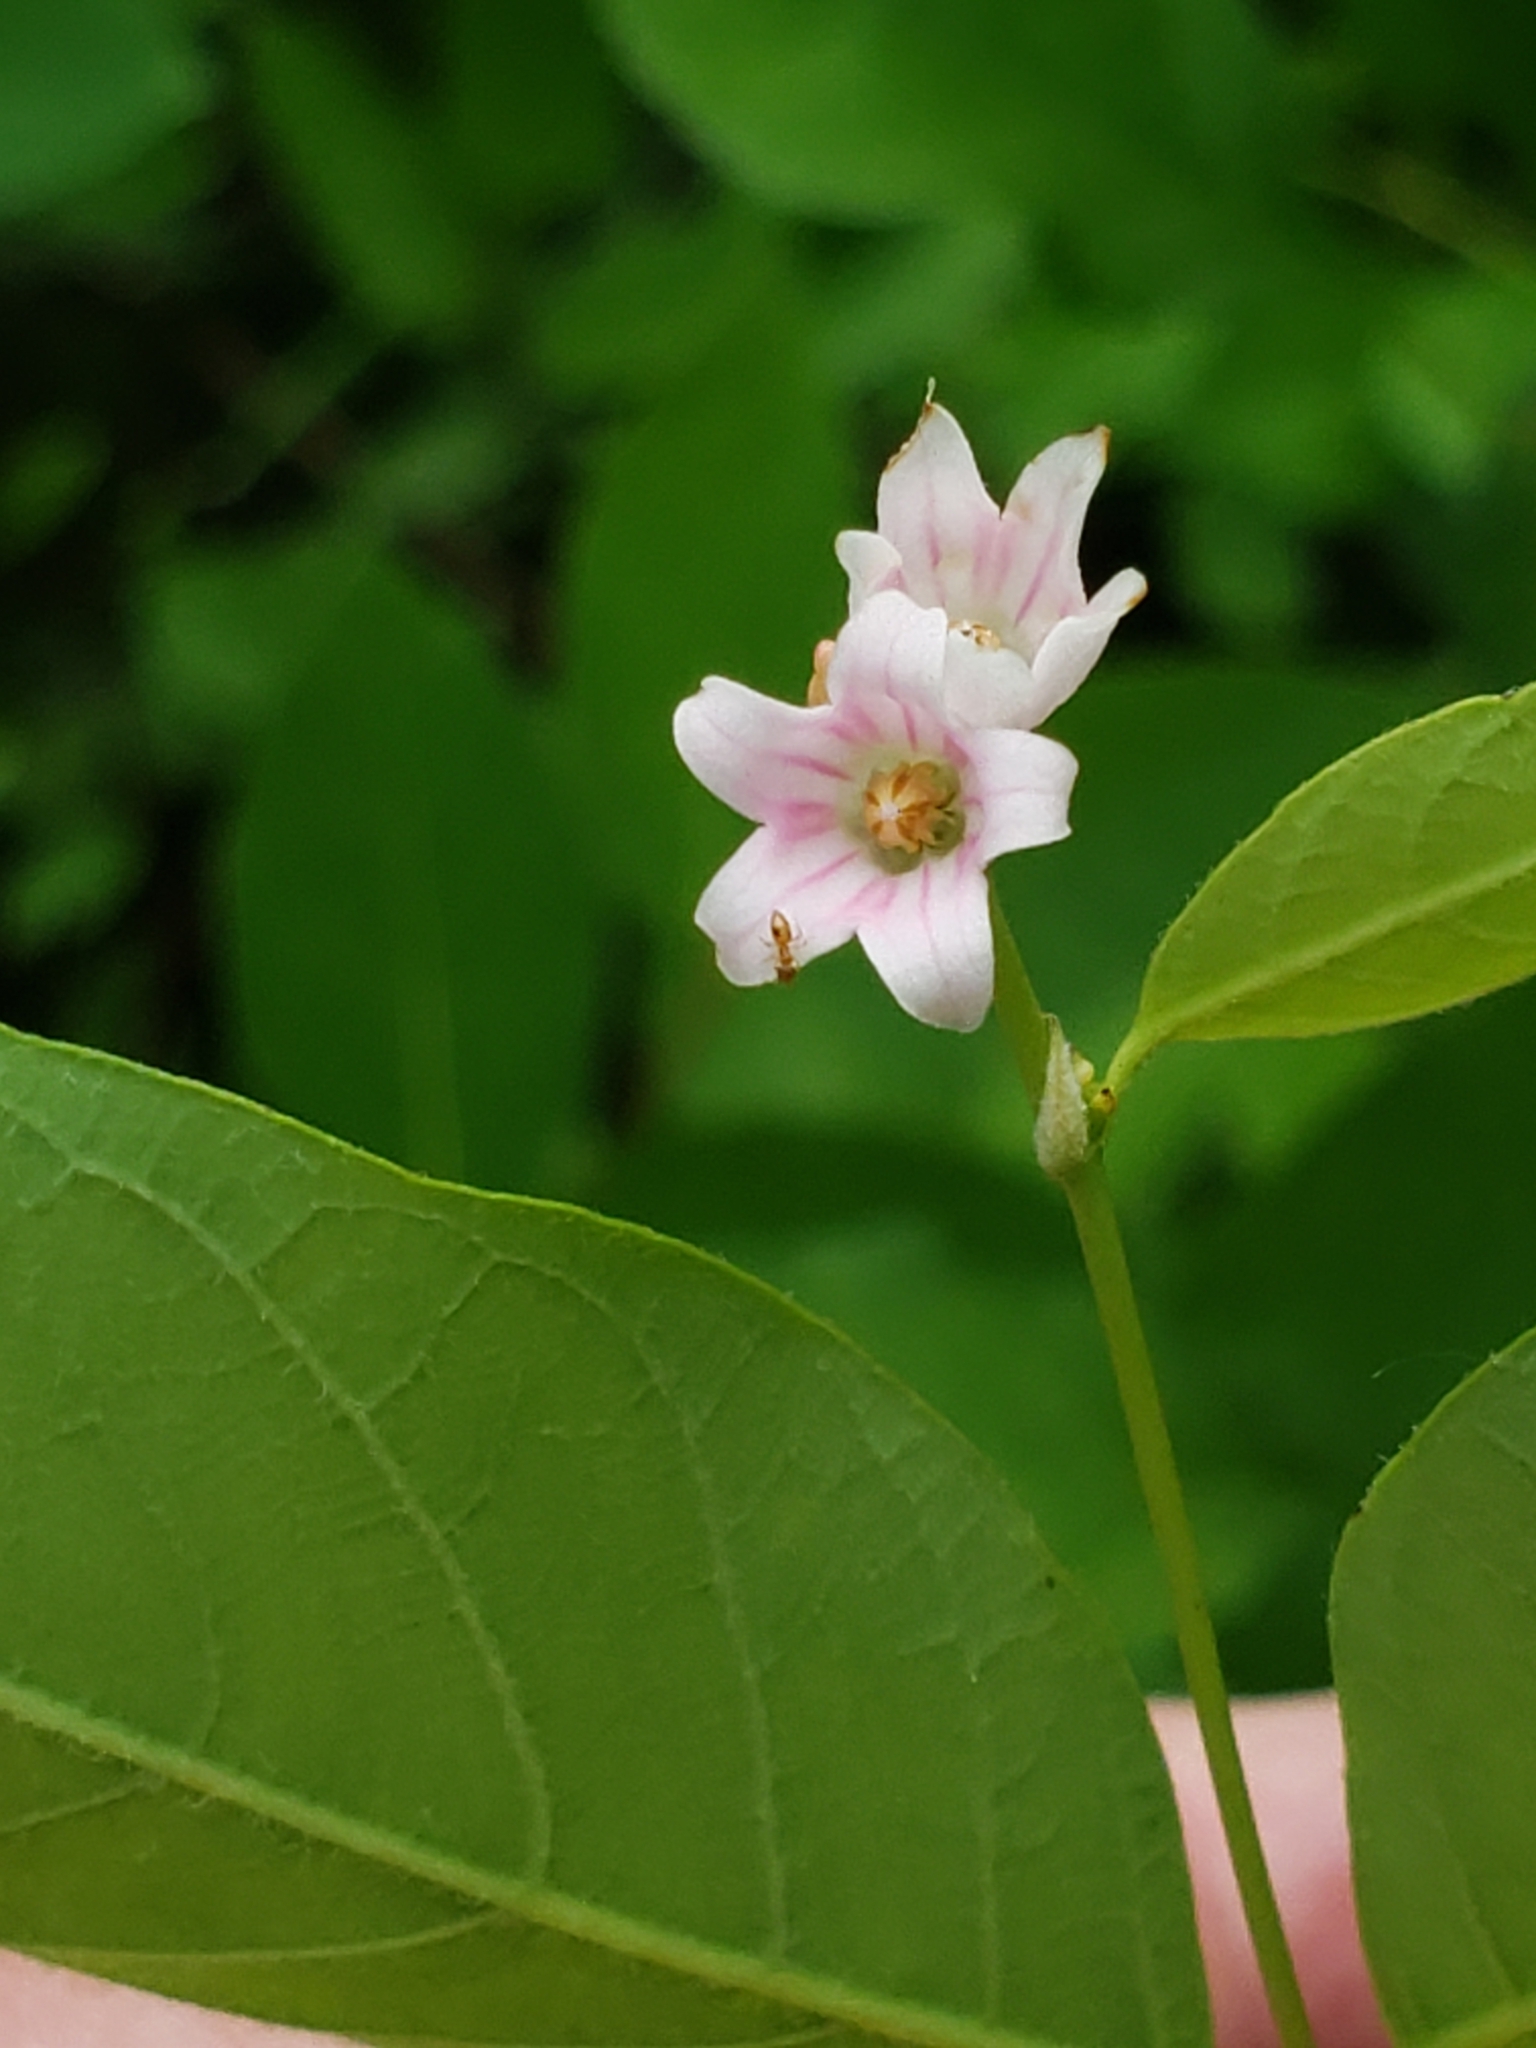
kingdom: Plantae
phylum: Tracheophyta
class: Magnoliopsida
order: Gentianales
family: Apocynaceae
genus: Apocynum
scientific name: Apocynum androsaemifolium
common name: Spreading dogbane
